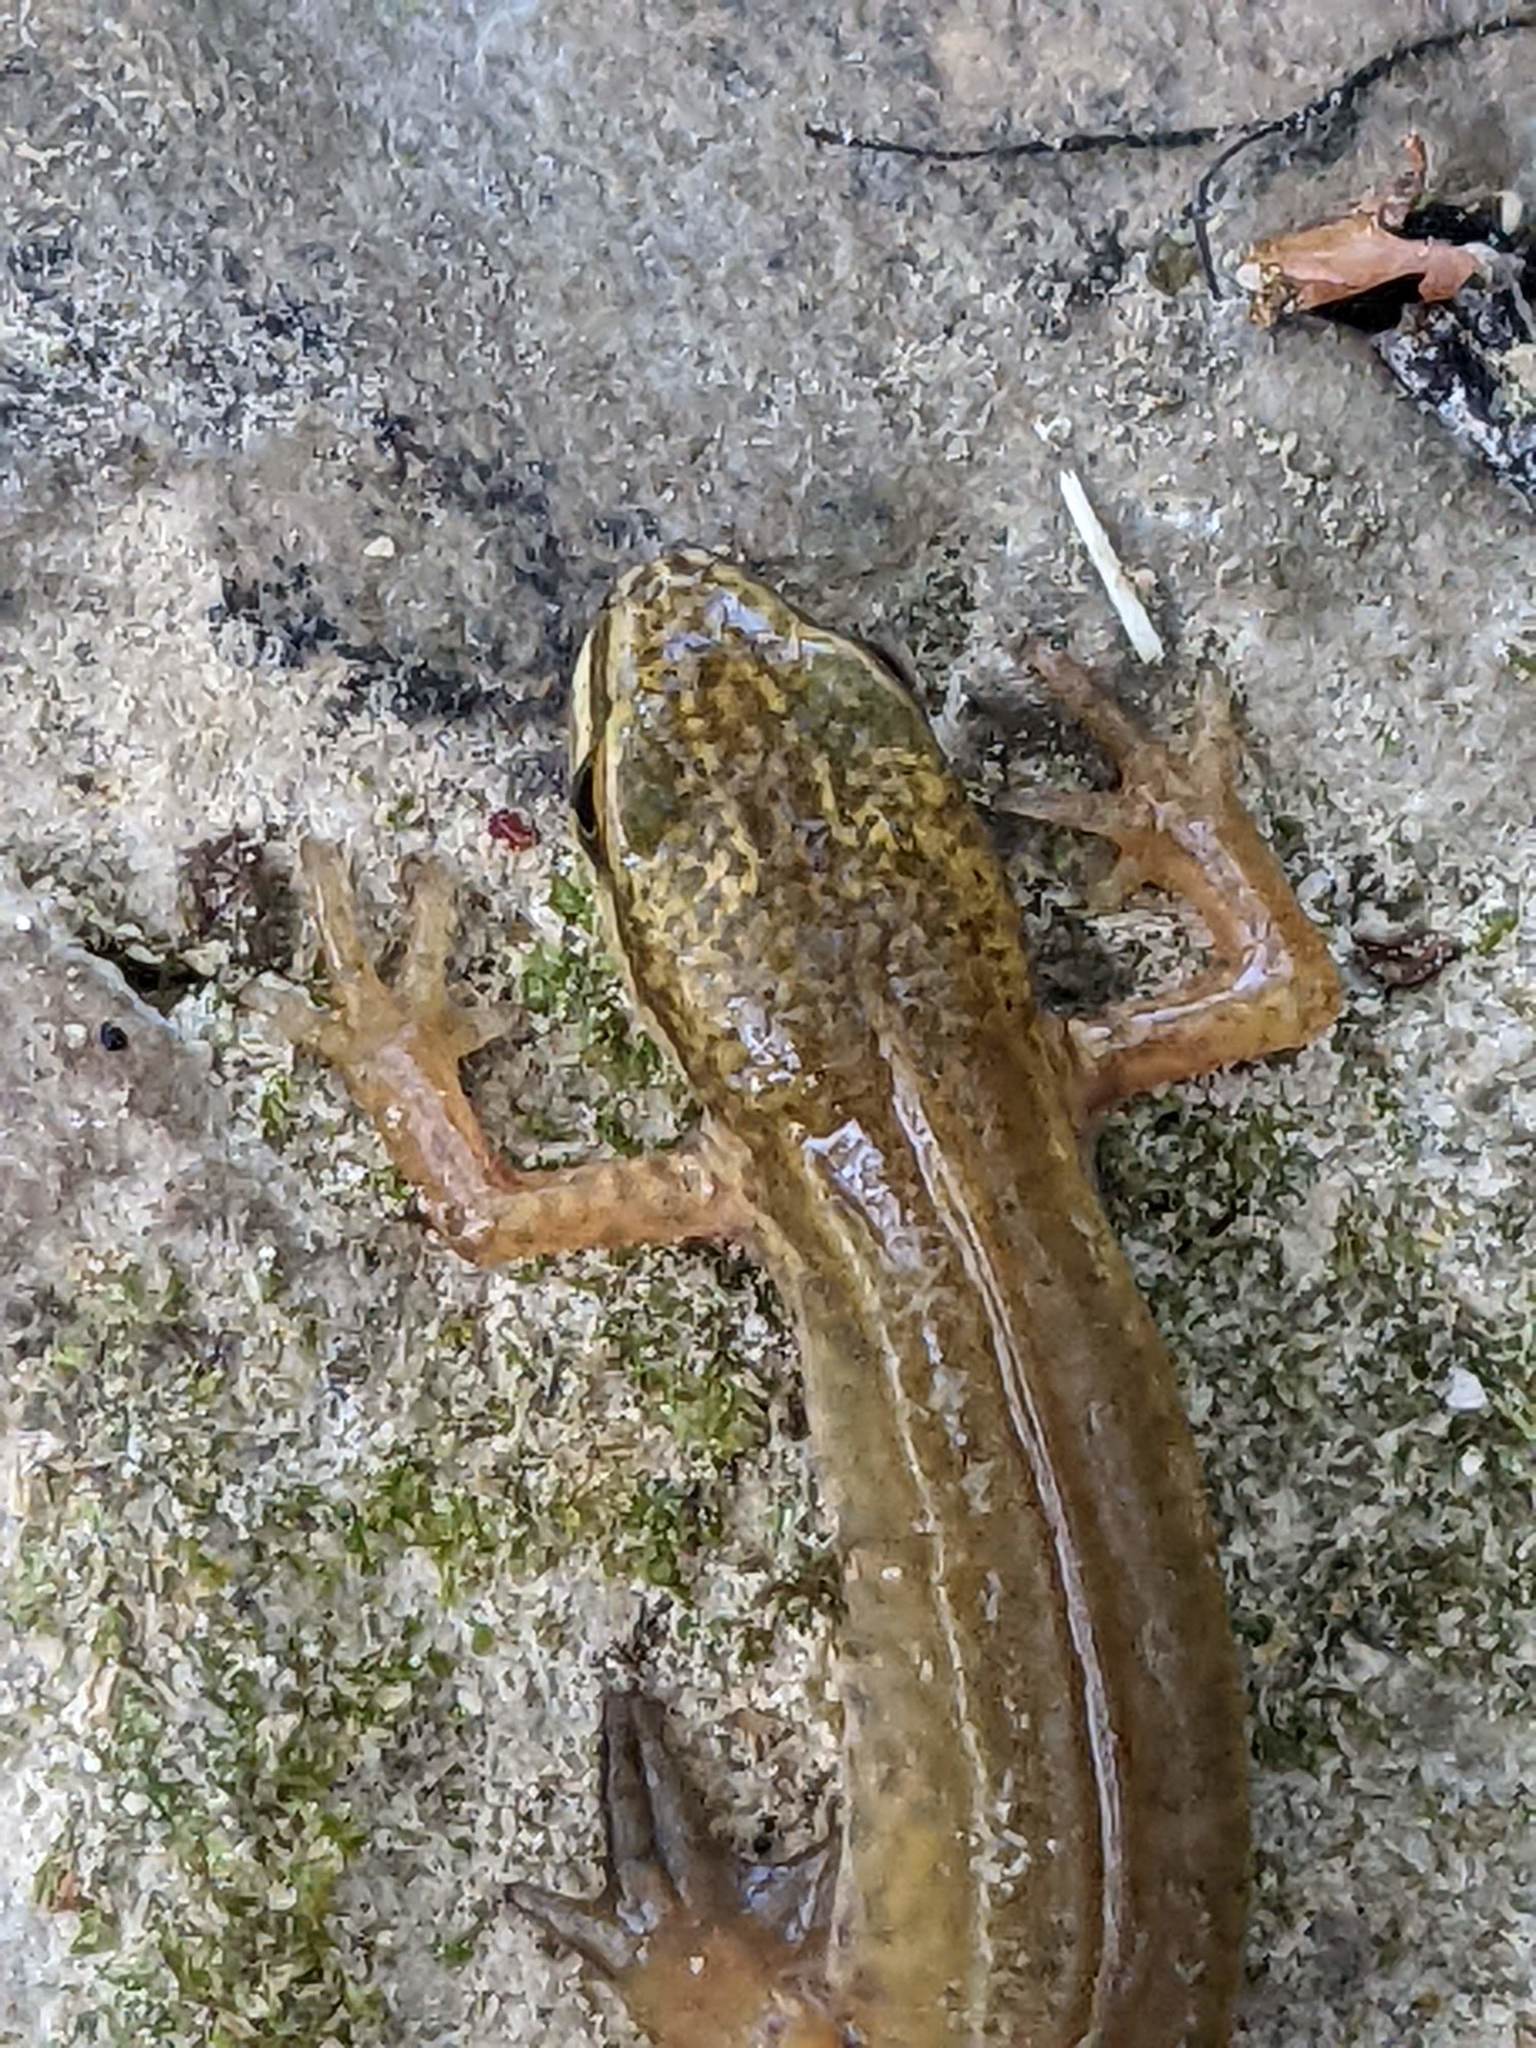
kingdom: Animalia
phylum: Chordata
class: Amphibia
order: Caudata
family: Salamandridae
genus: Lissotriton
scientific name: Lissotriton helveticus
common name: Palmate newt
